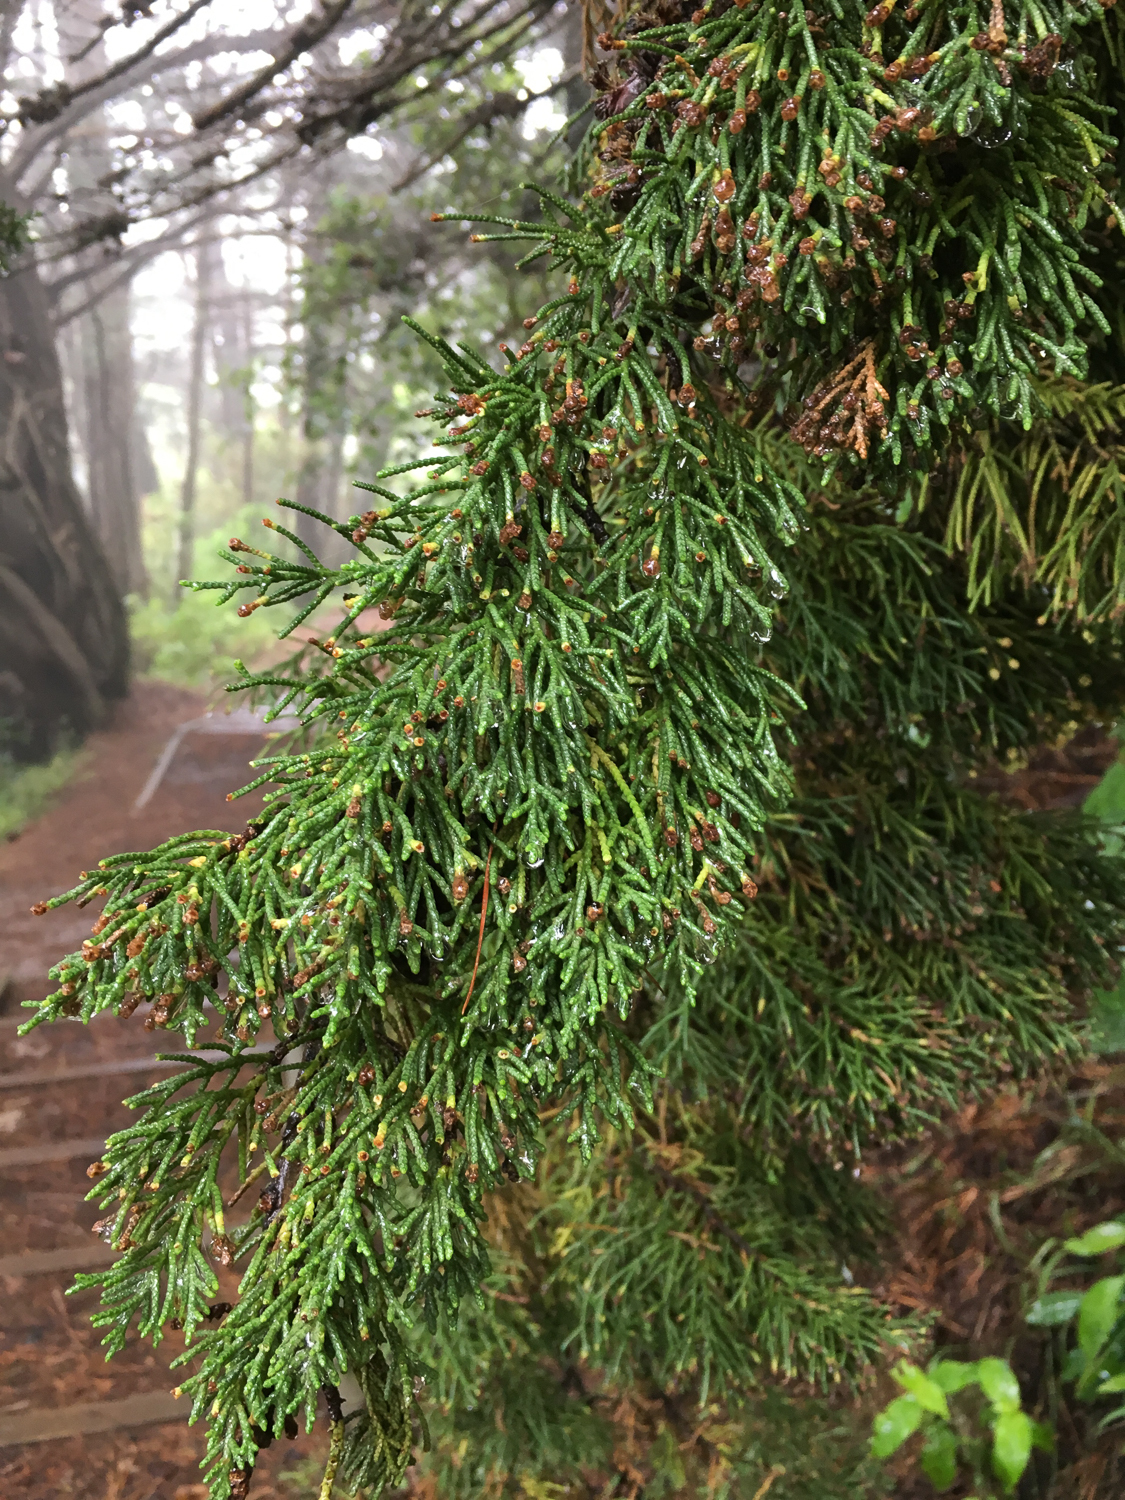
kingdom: Plantae
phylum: Tracheophyta
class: Pinopsida
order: Pinales
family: Cupressaceae
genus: Cupressus
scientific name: Cupressus macrocarpa
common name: Monterey cypress
